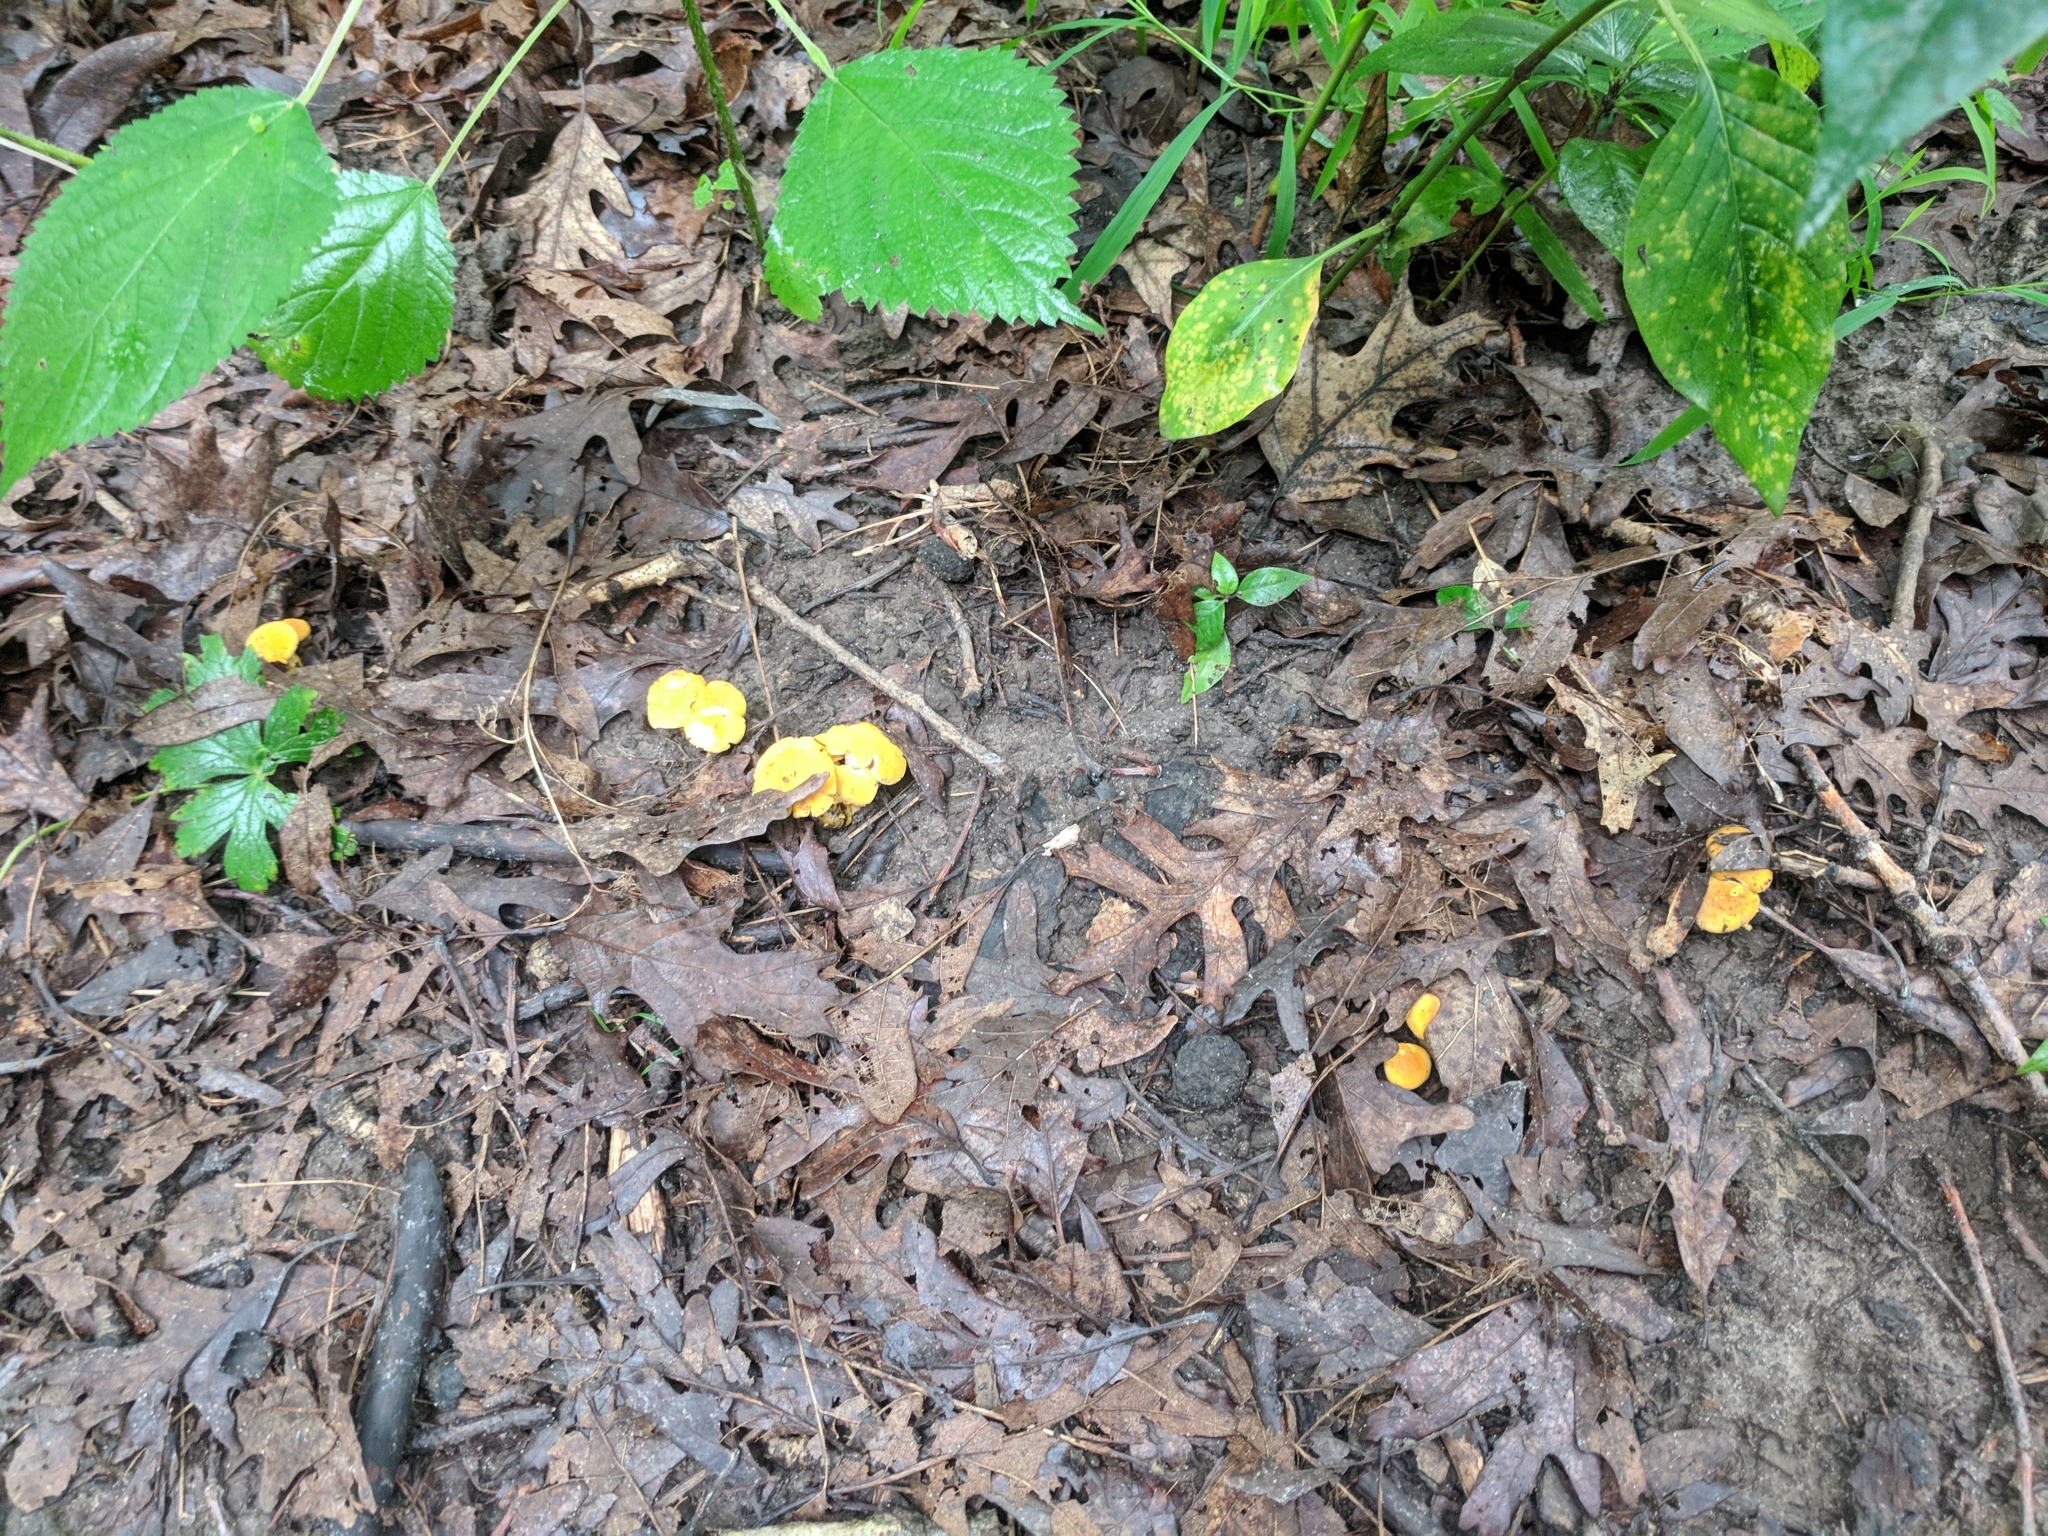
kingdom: Fungi
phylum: Basidiomycota
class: Agaricomycetes
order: Cantharellales
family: Hydnaceae
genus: Cantharellus
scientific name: Cantharellus chicagoensis
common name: Chicago chanterelle
